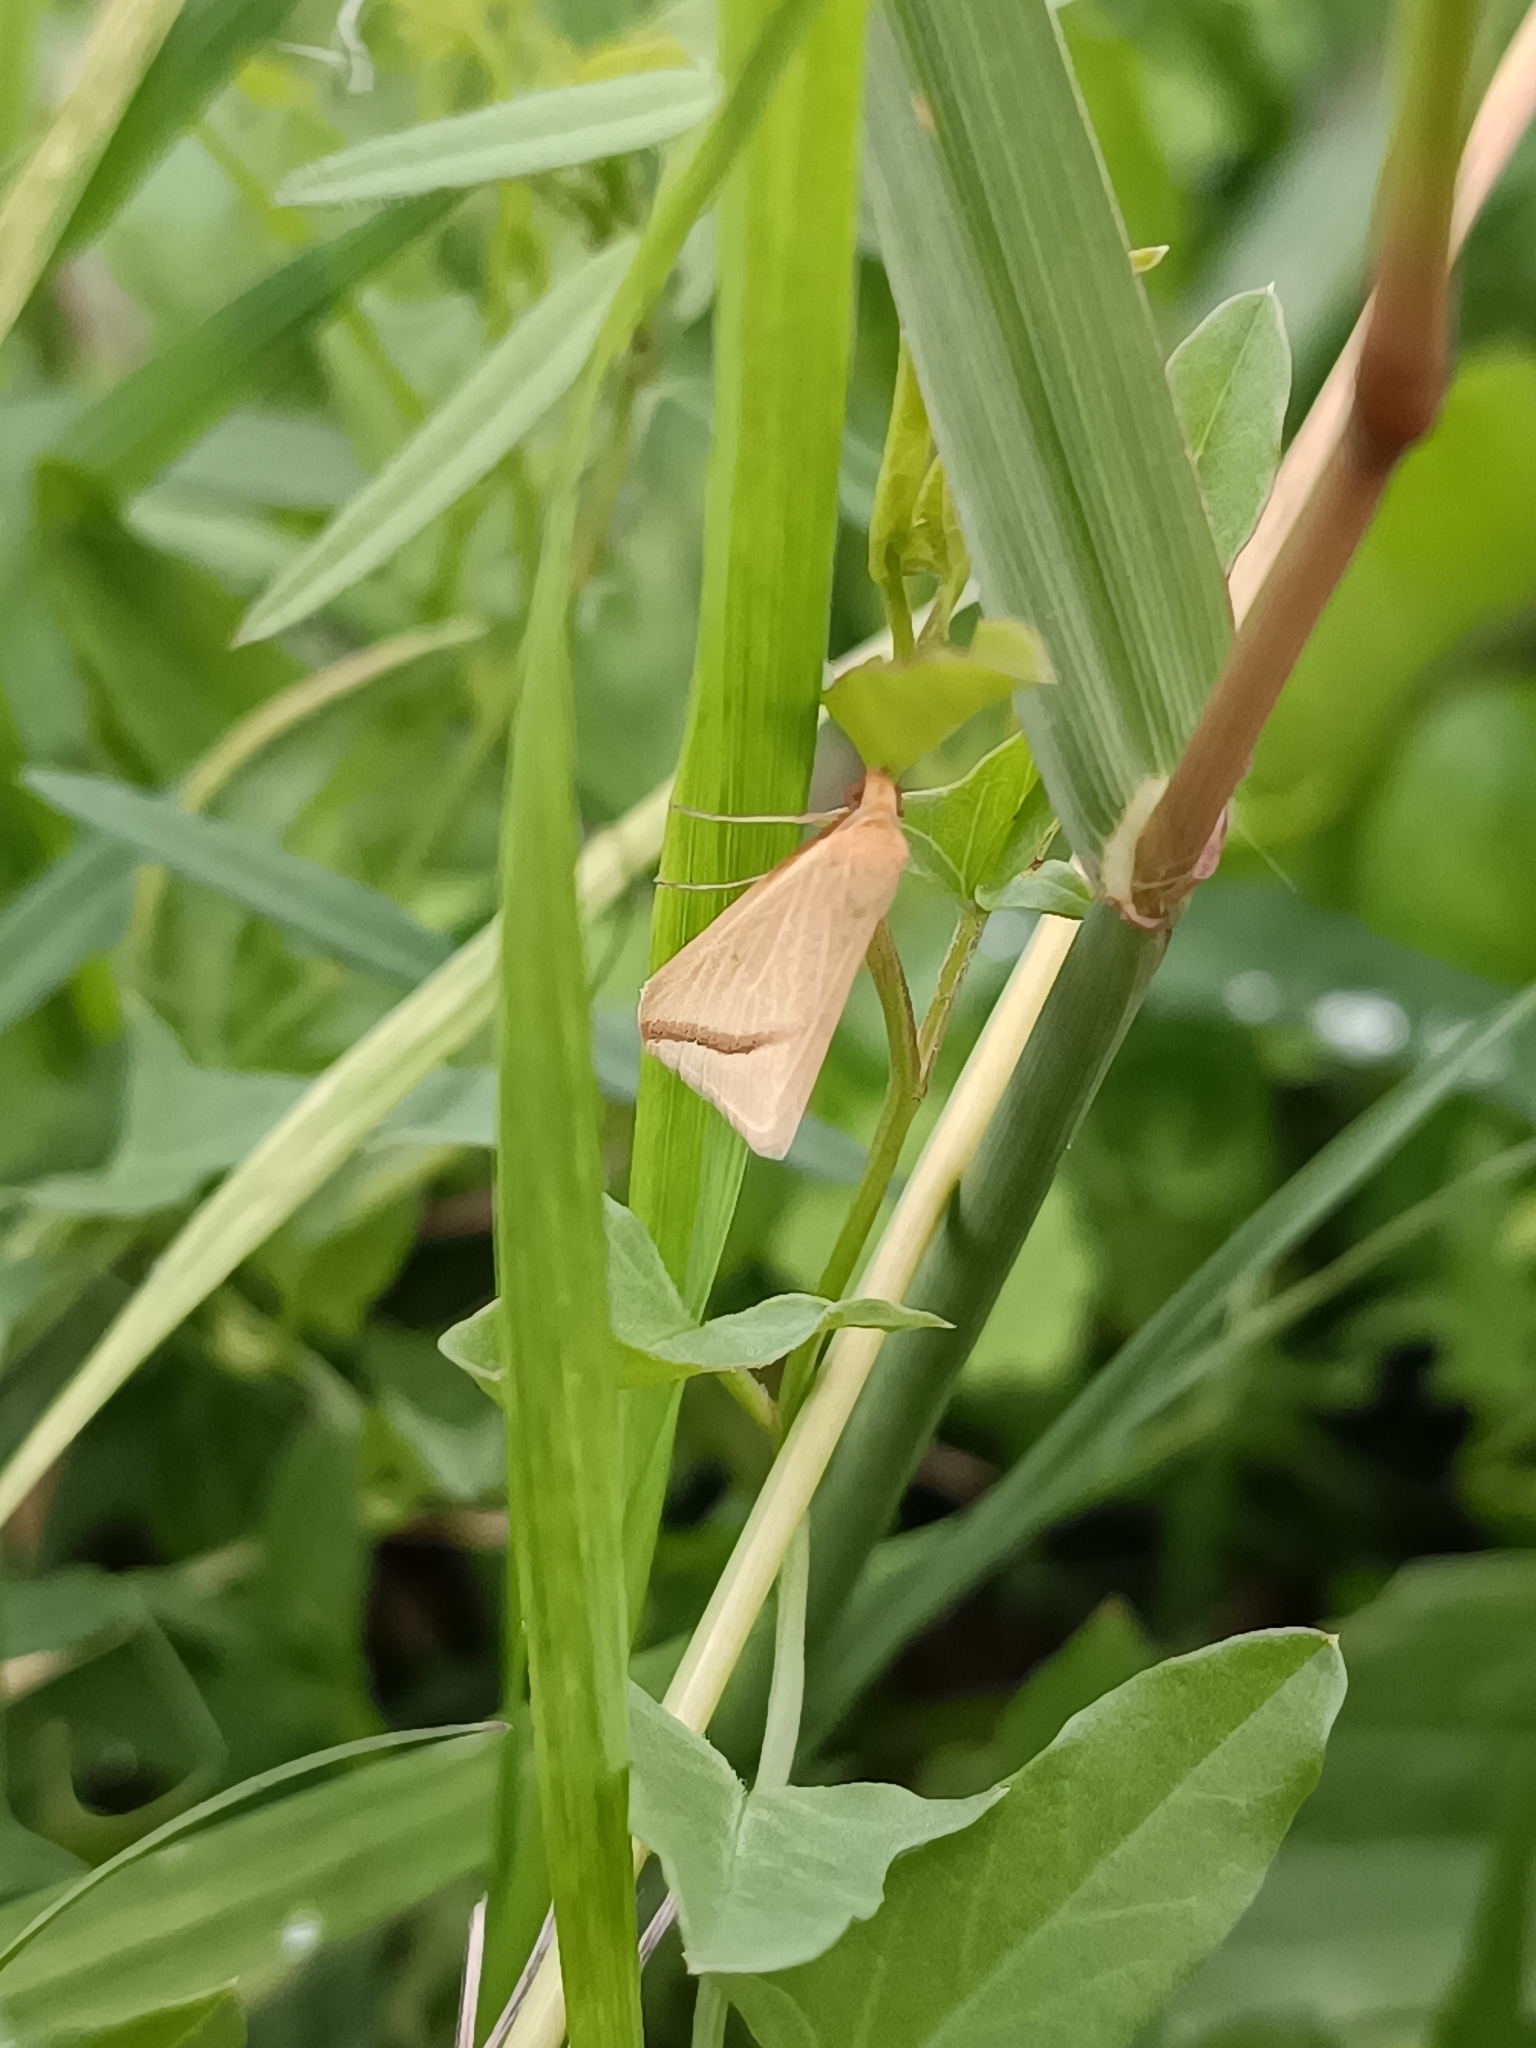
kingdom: Animalia
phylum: Arthropoda
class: Insecta
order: Lepidoptera
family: Geometridae
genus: Rhodometra
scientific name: Rhodometra sacraria
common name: Vestal
